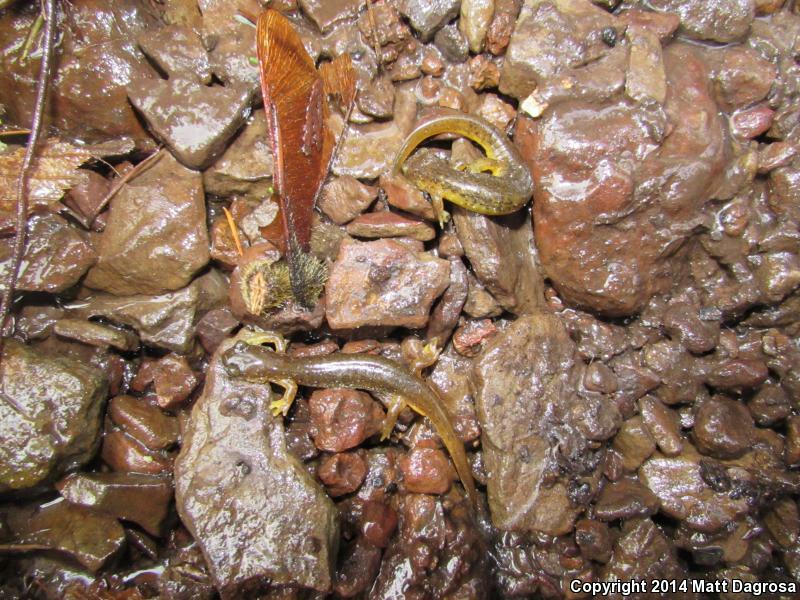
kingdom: Animalia
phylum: Chordata
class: Amphibia
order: Caudata
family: Rhyacotritonidae
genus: Rhyacotriton
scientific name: Rhyacotriton cascadae
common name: Cascade torrent salamander
